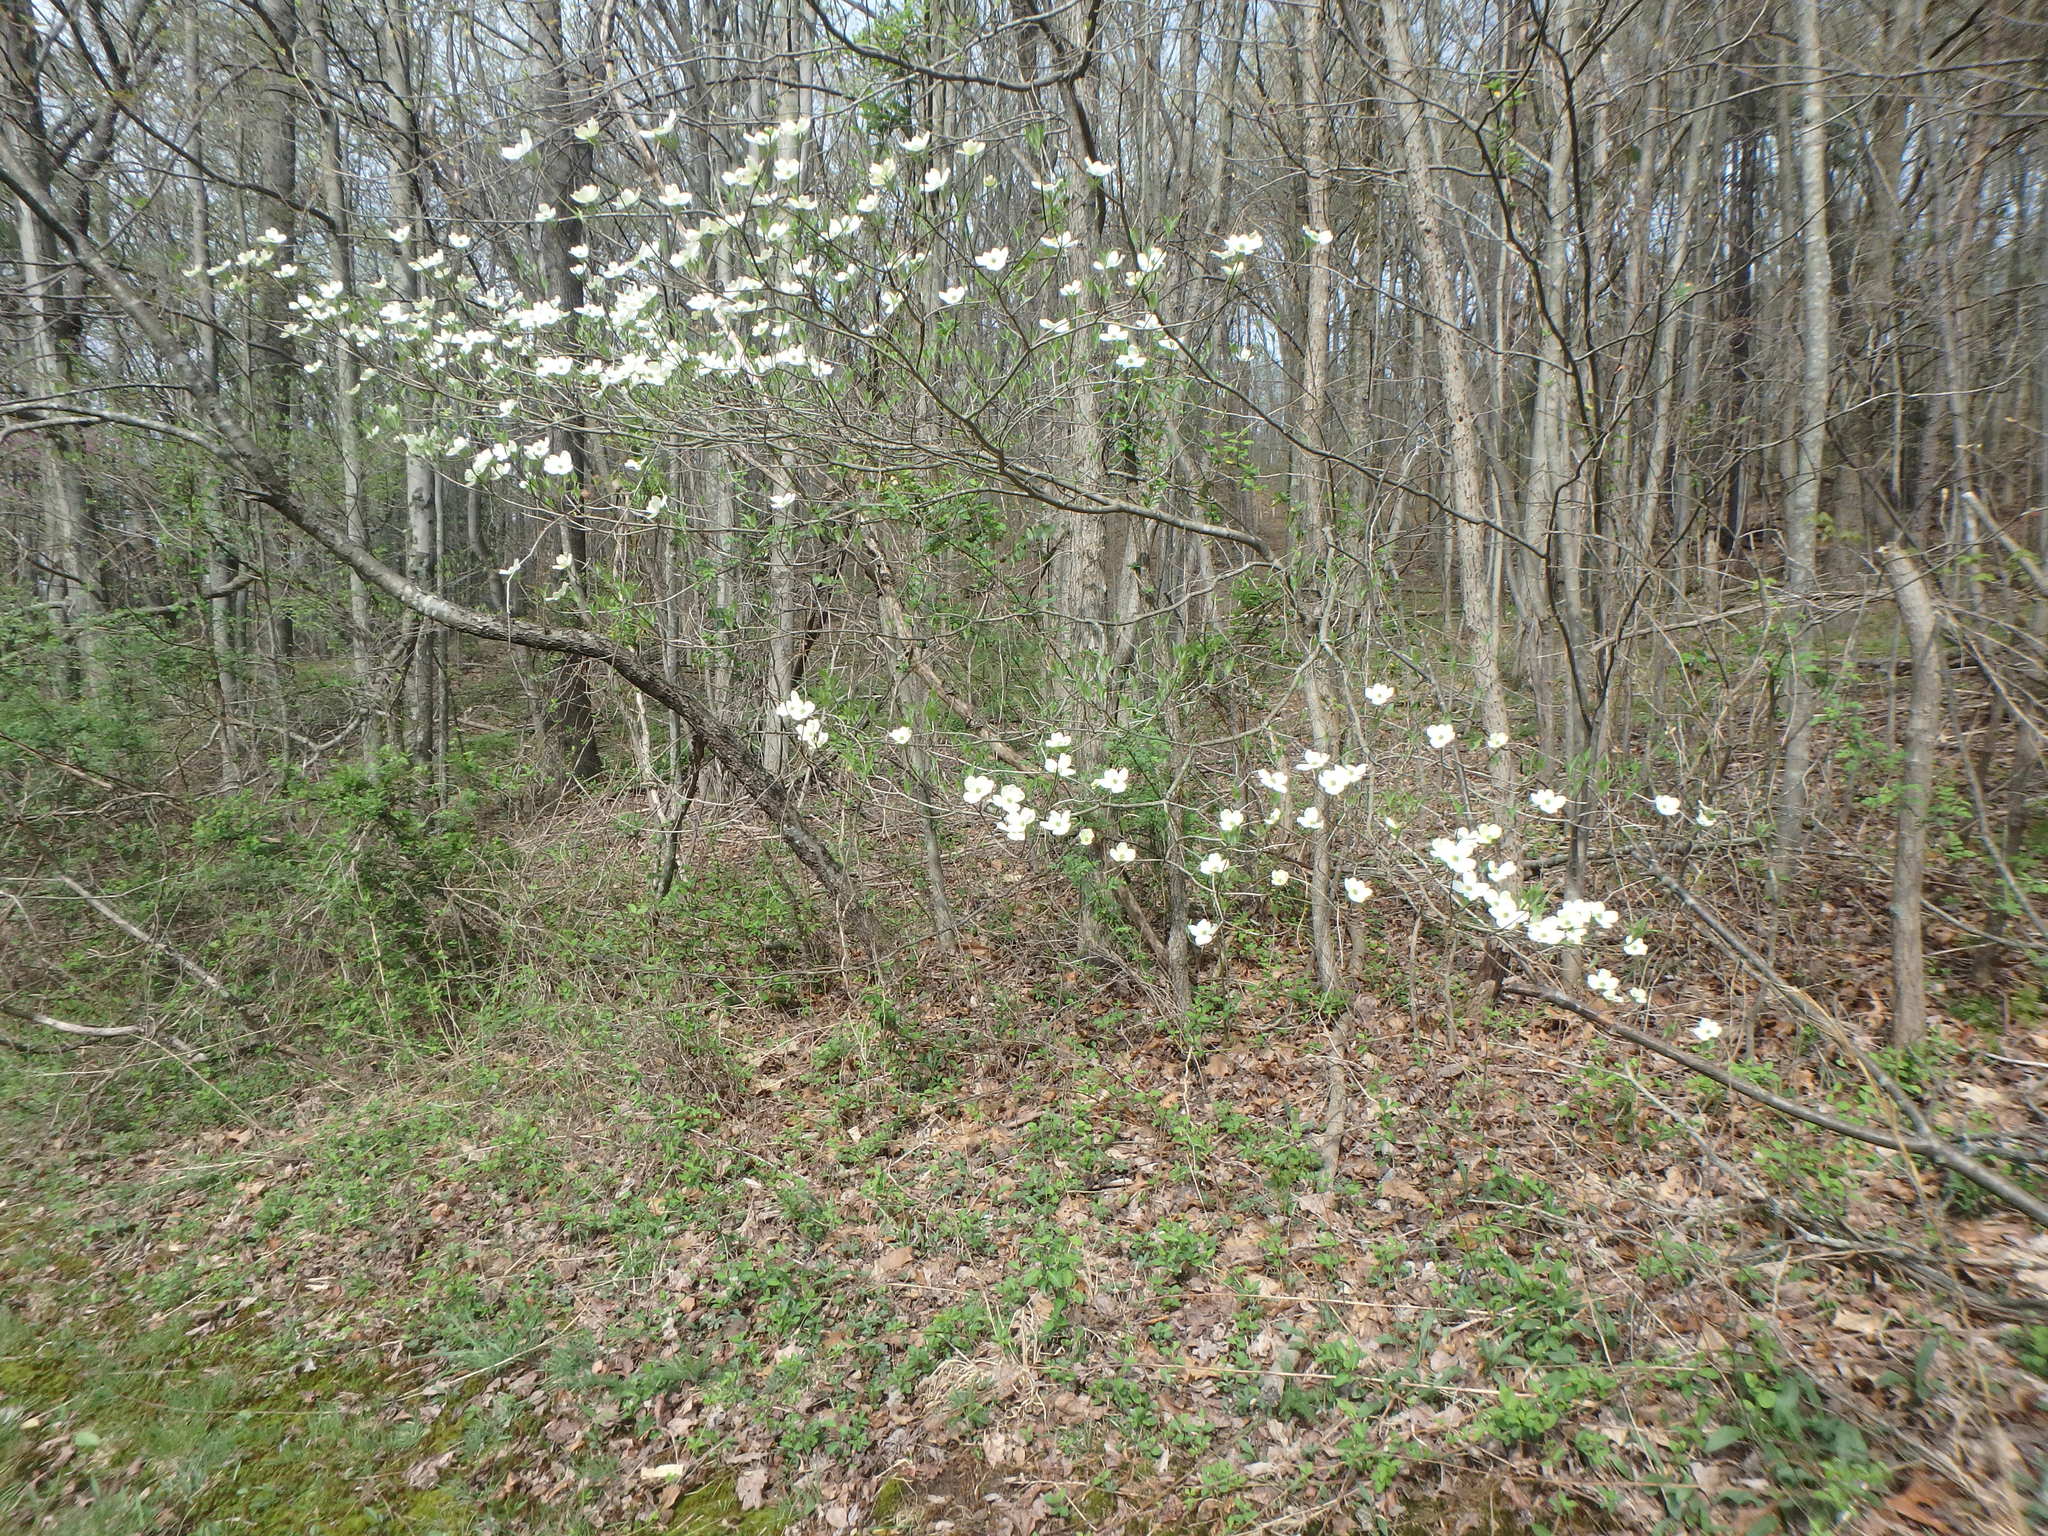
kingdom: Plantae
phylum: Tracheophyta
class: Magnoliopsida
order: Cornales
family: Cornaceae
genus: Cornus
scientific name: Cornus florida
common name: Flowering dogwood
